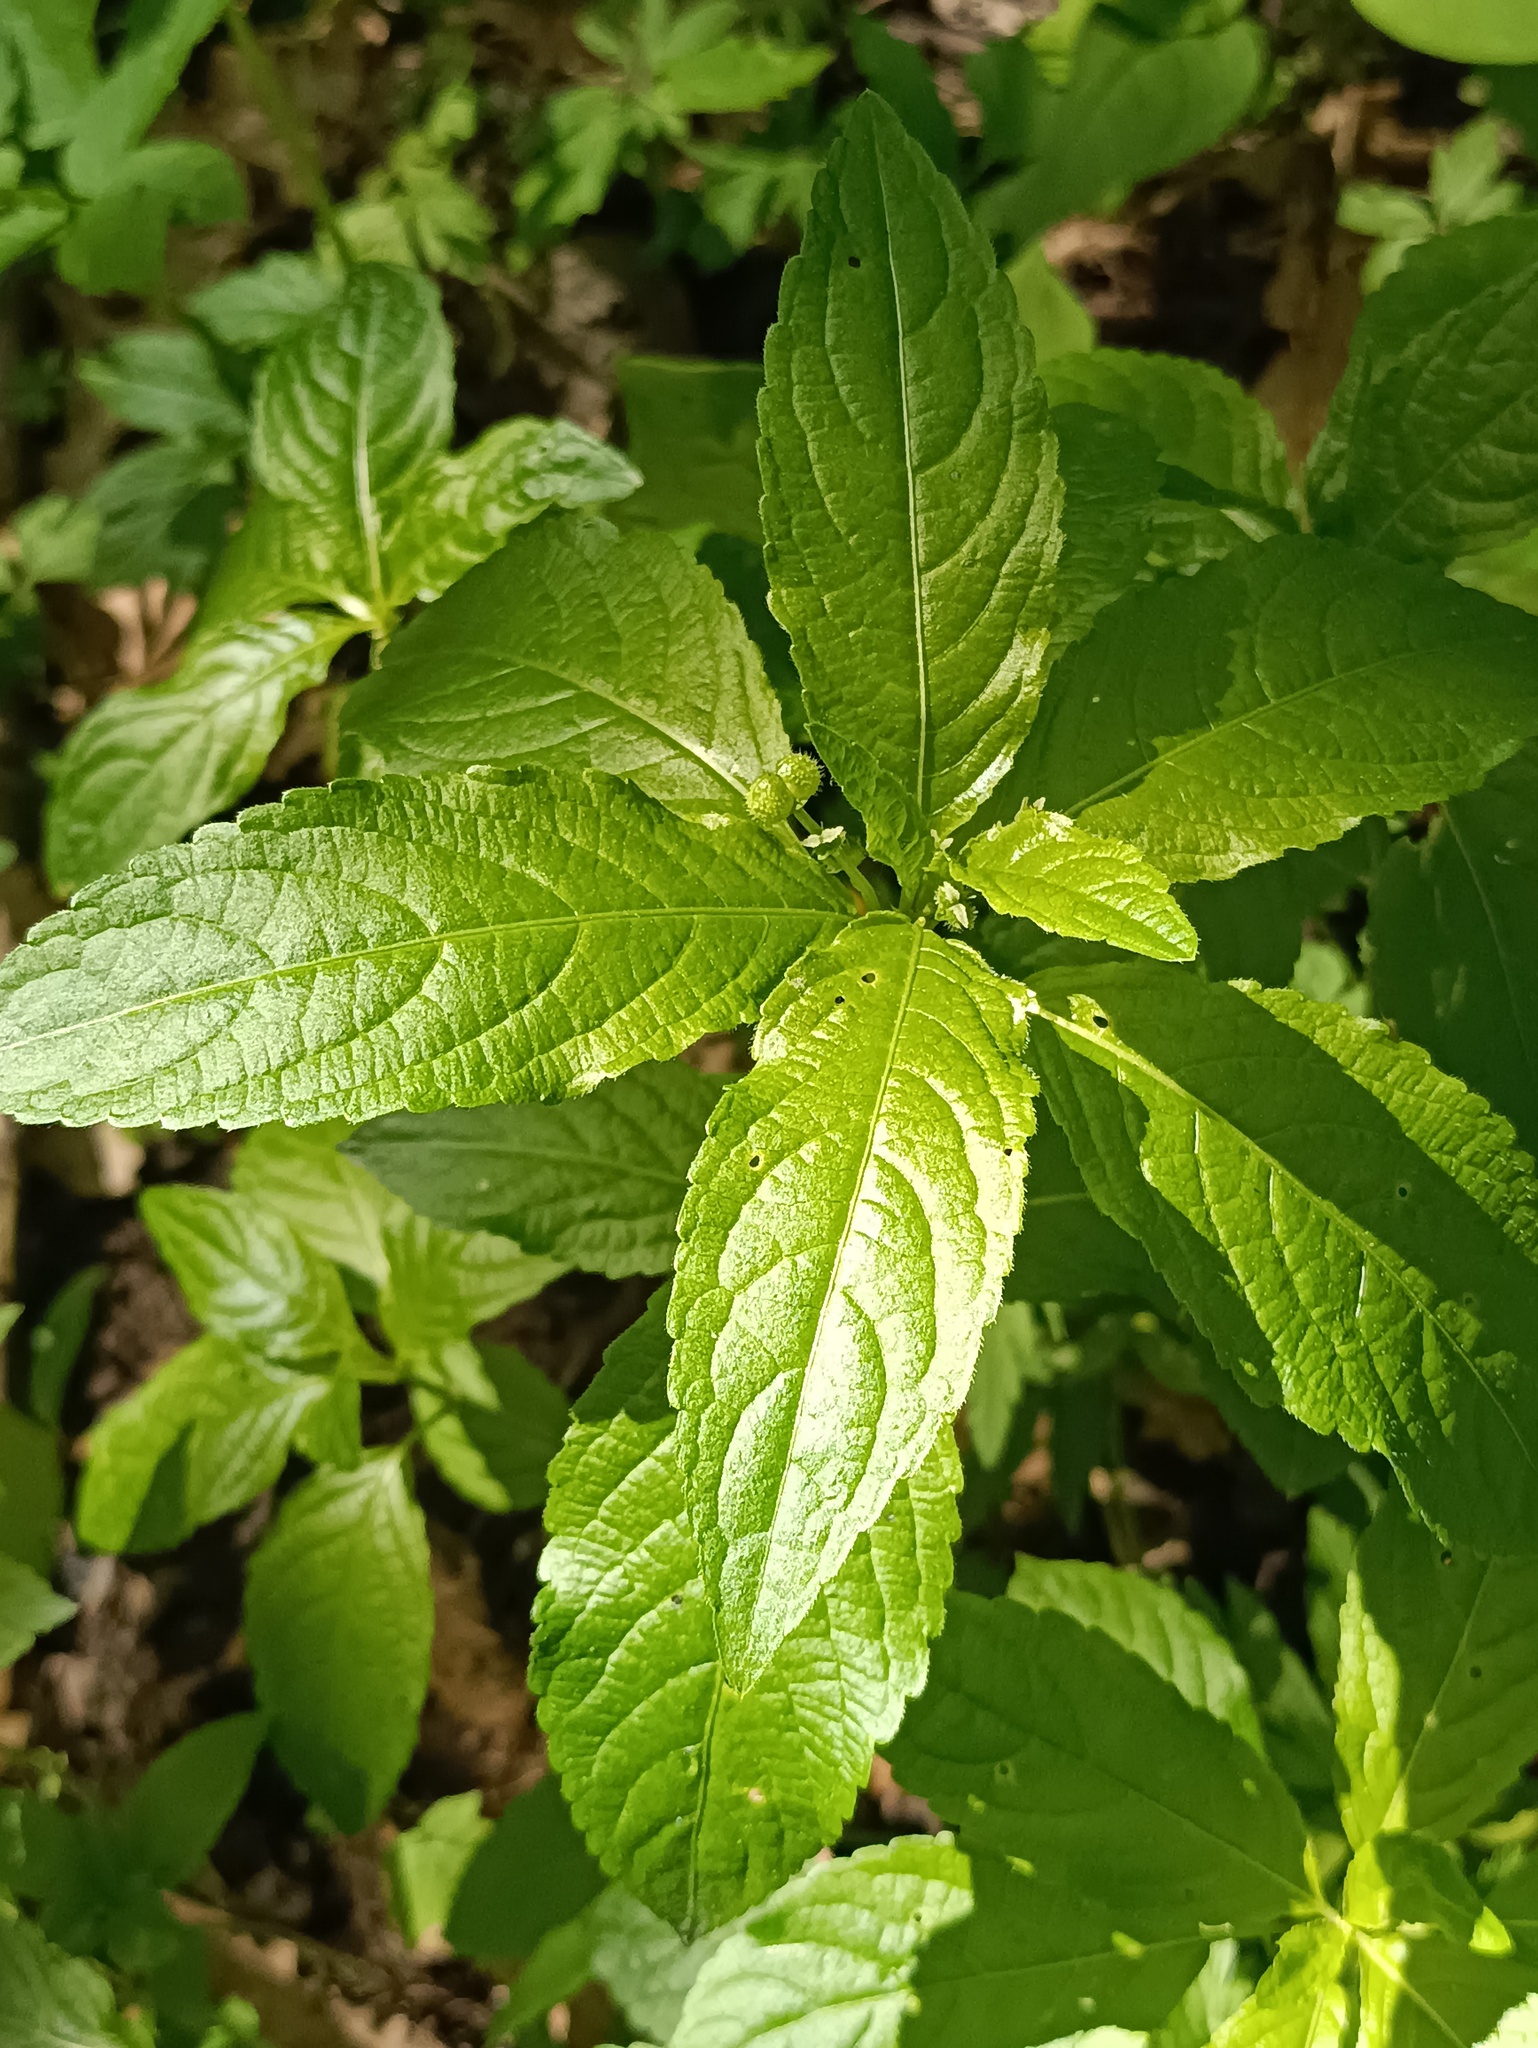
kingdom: Plantae
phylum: Tracheophyta
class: Magnoliopsida
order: Malpighiales
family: Euphorbiaceae
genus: Mercurialis
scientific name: Mercurialis perennis
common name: Dog mercury
